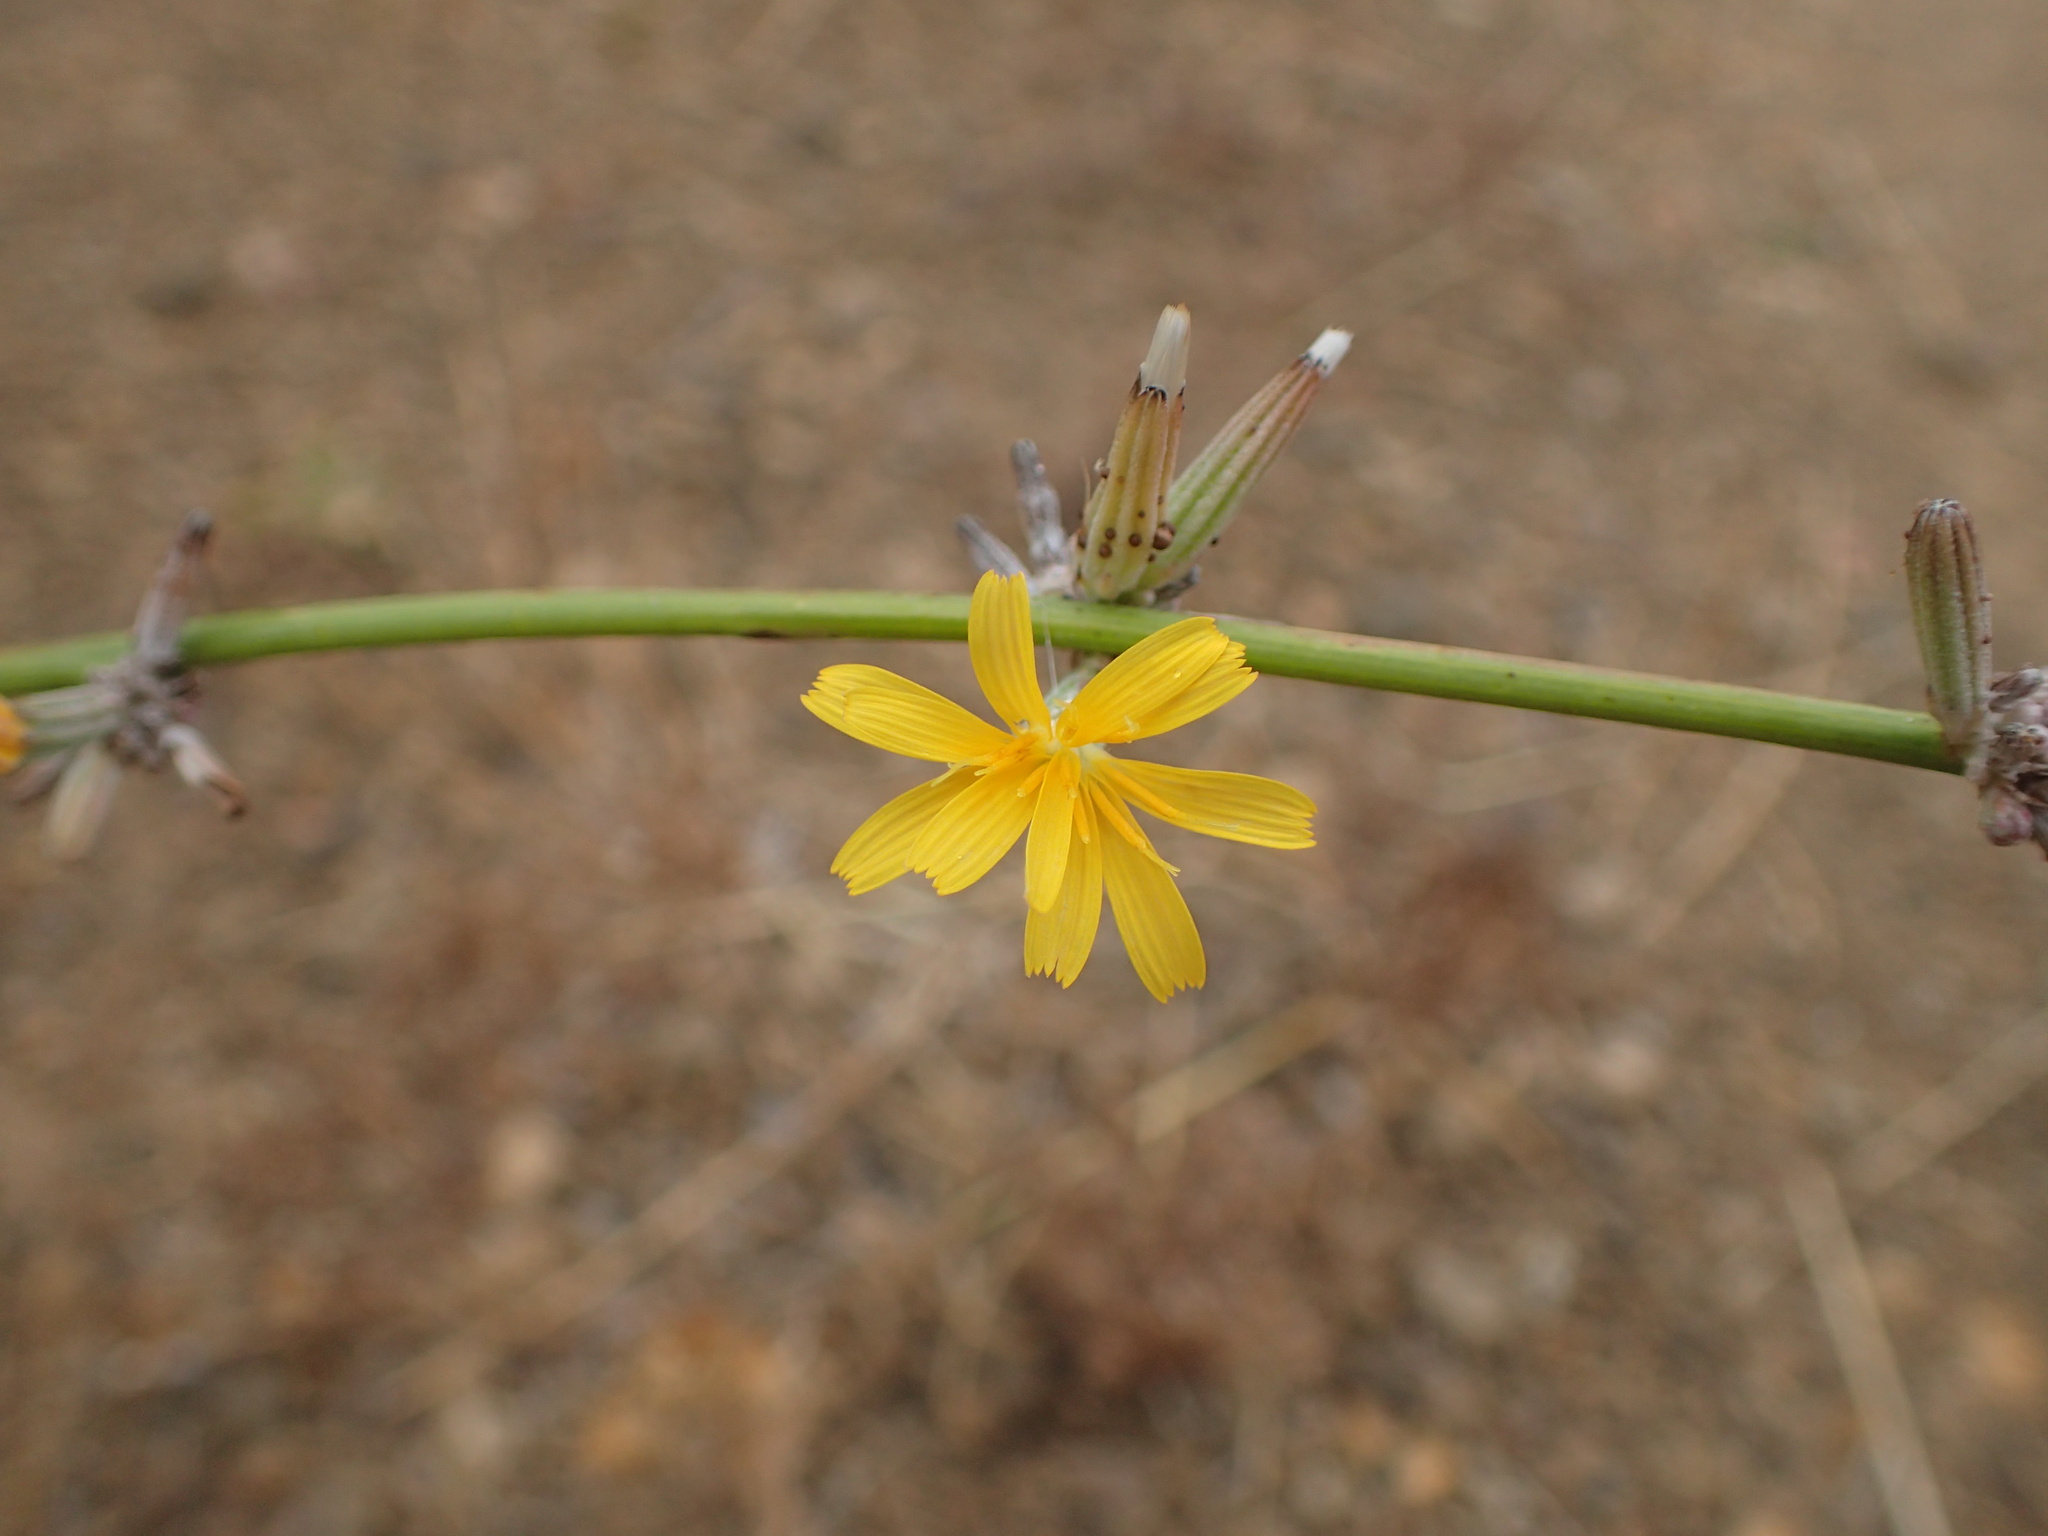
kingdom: Plantae
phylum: Tracheophyta
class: Magnoliopsida
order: Asterales
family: Asteraceae
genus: Chondrilla
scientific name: Chondrilla juncea
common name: Skeleton weed
